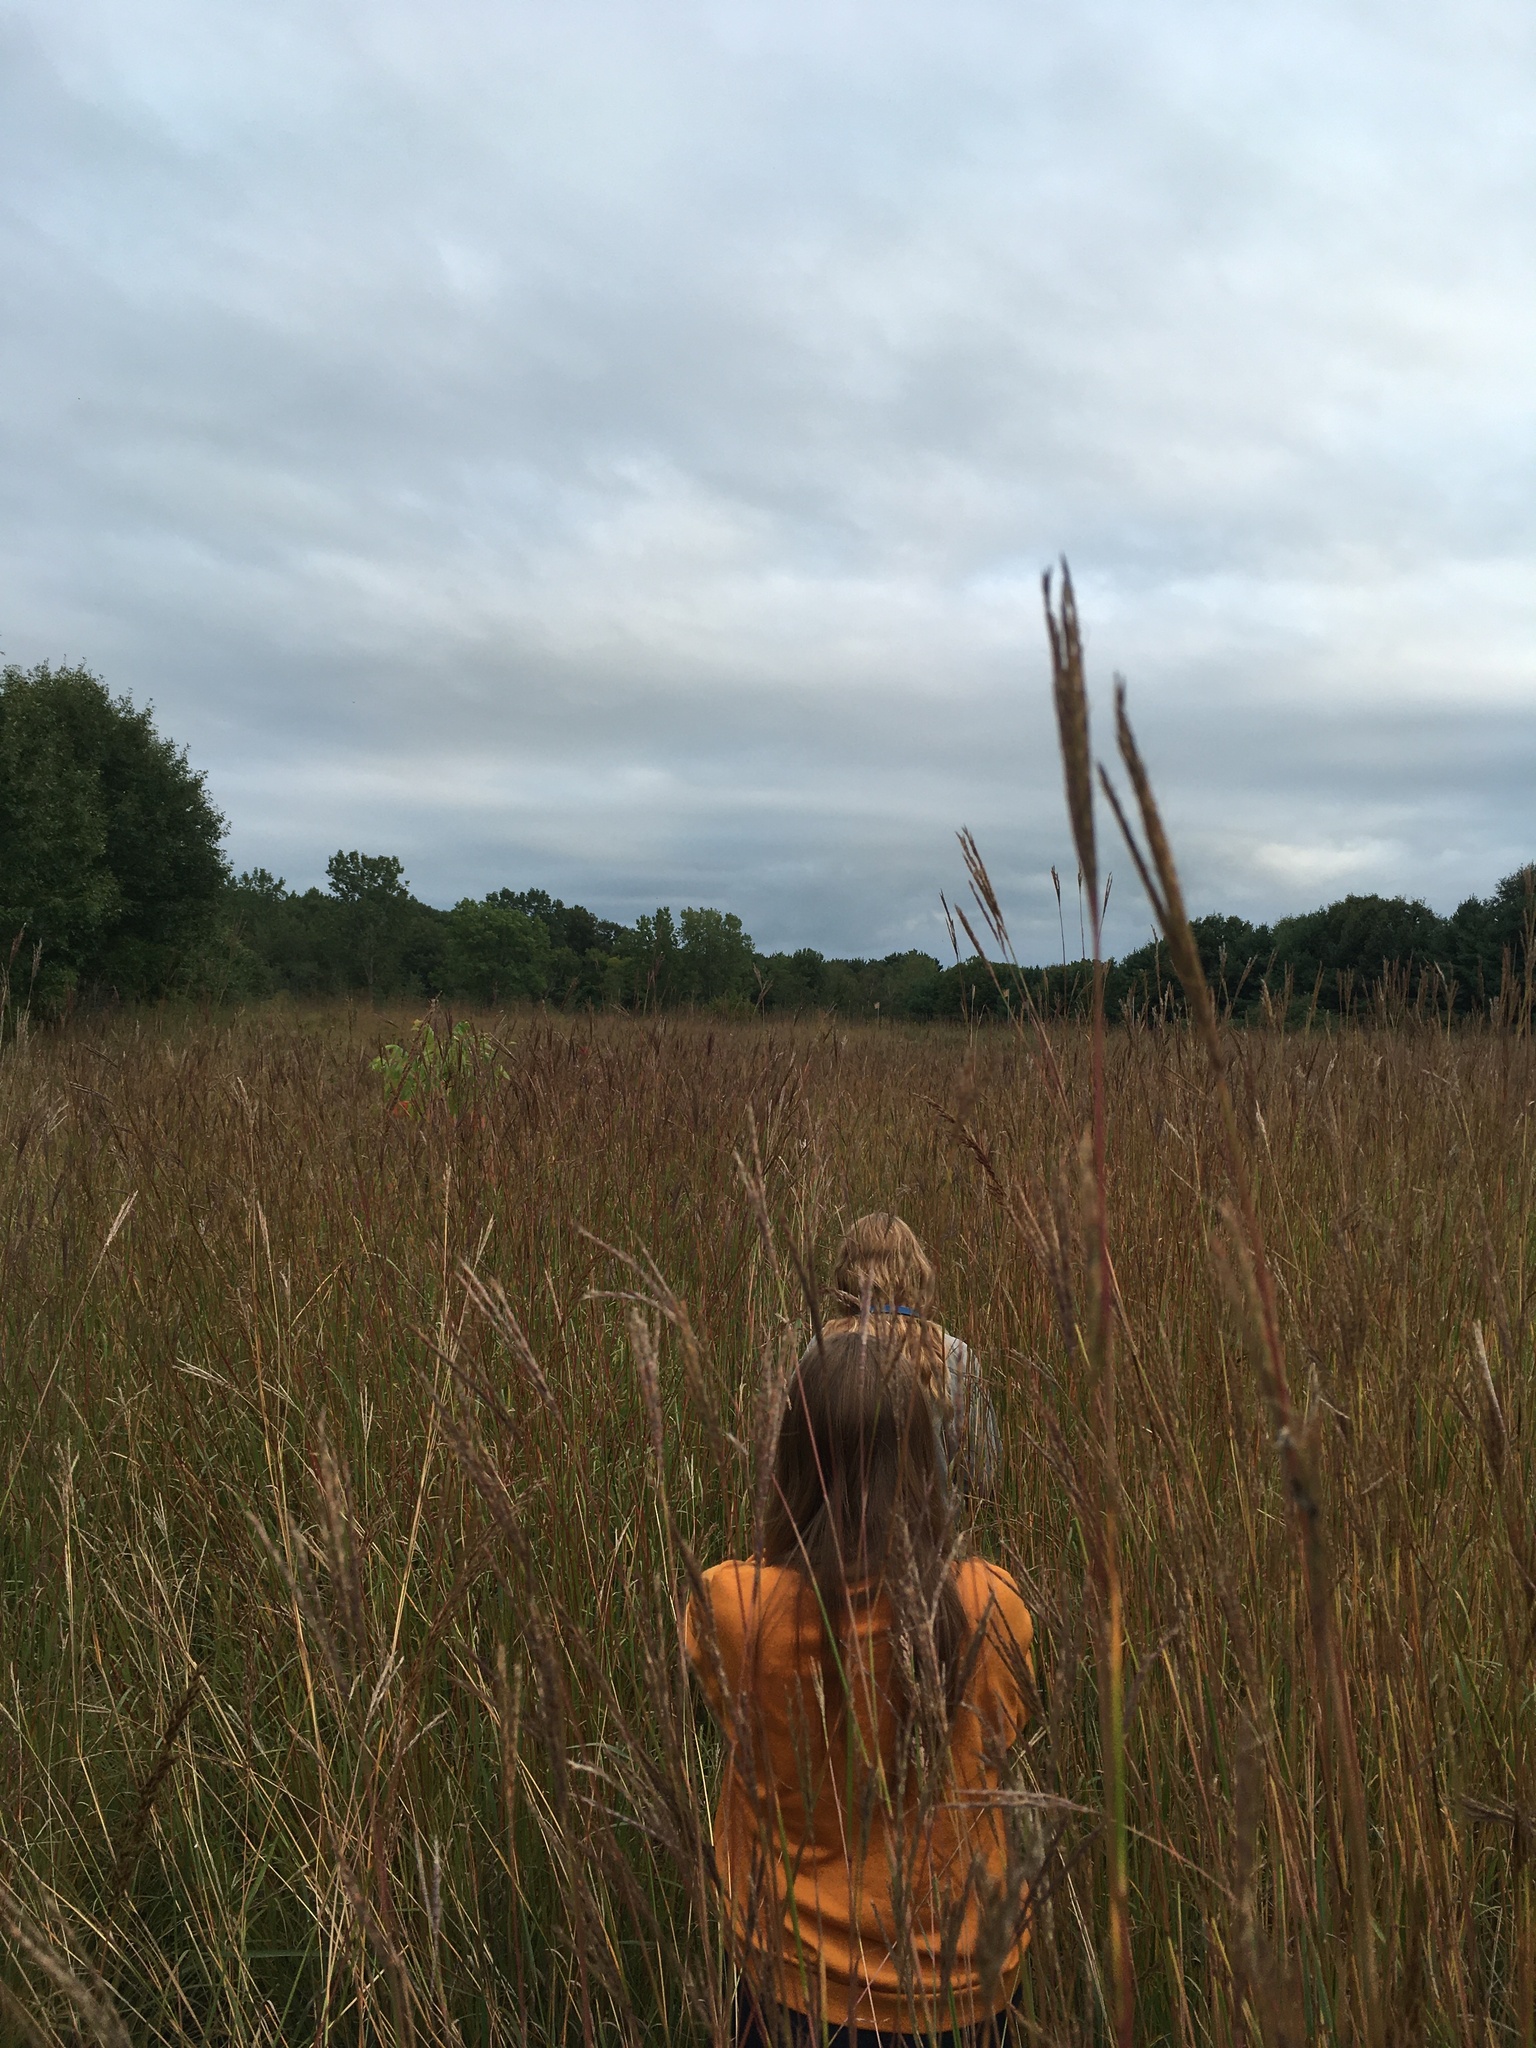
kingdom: Plantae
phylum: Tracheophyta
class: Liliopsida
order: Poales
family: Poaceae
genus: Andropogon
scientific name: Andropogon gerardi
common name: Big bluestem
